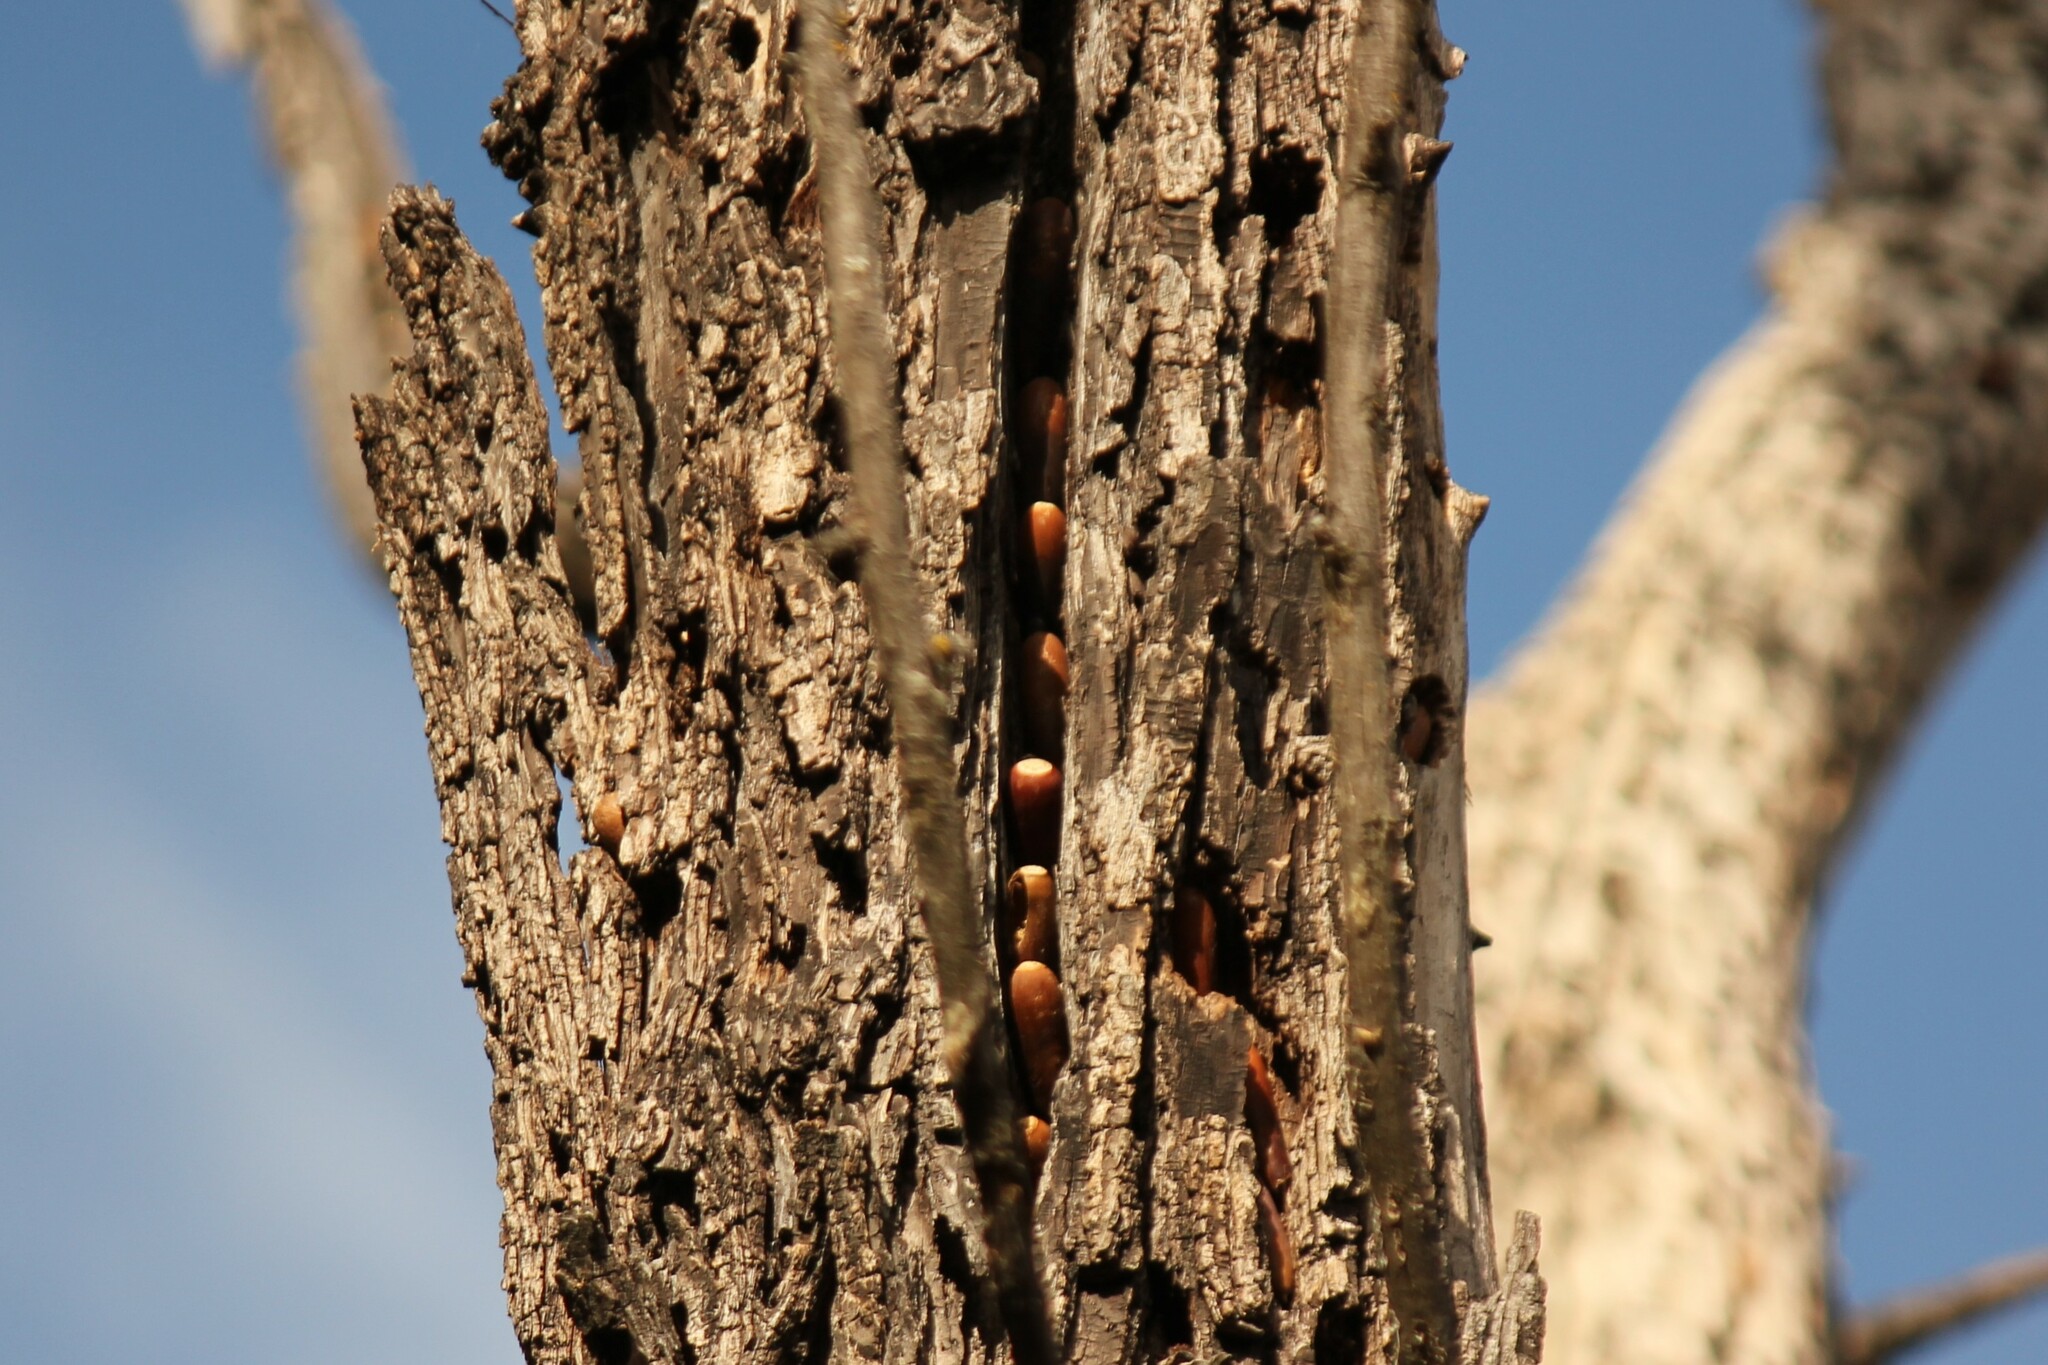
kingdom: Animalia
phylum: Chordata
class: Aves
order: Piciformes
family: Picidae
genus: Melanerpes
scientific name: Melanerpes formicivorus
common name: Acorn woodpecker
